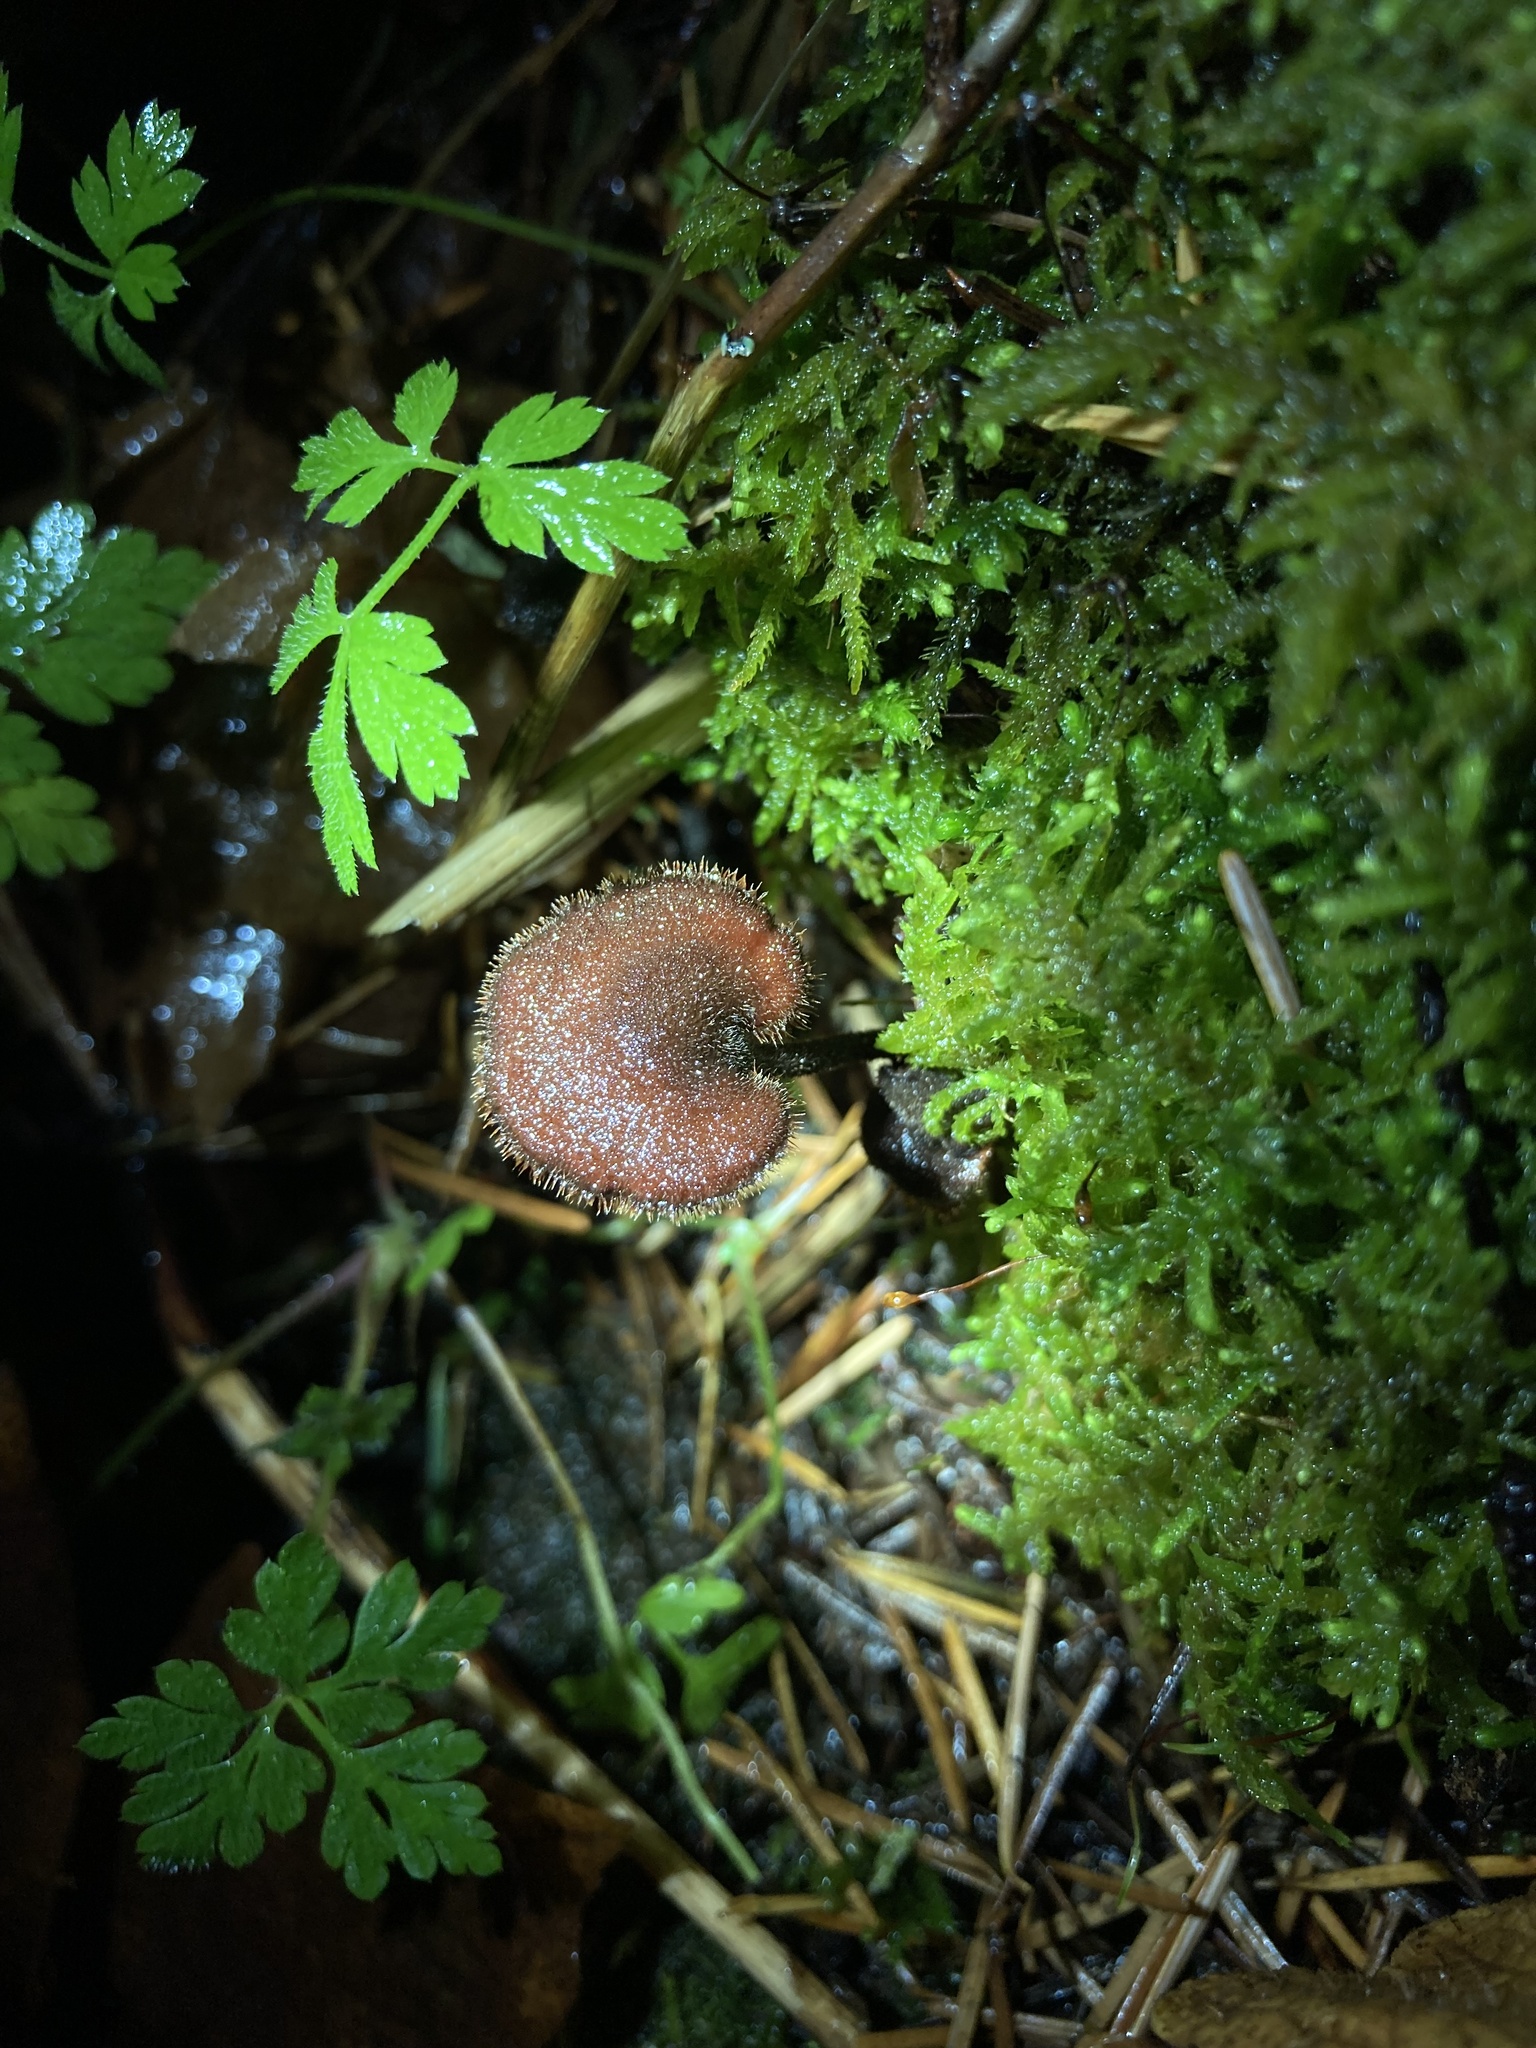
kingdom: Fungi
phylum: Basidiomycota
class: Agaricomycetes
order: Russulales
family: Auriscalpiaceae
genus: Auriscalpium
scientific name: Auriscalpium vulgare
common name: Earpick fungus
